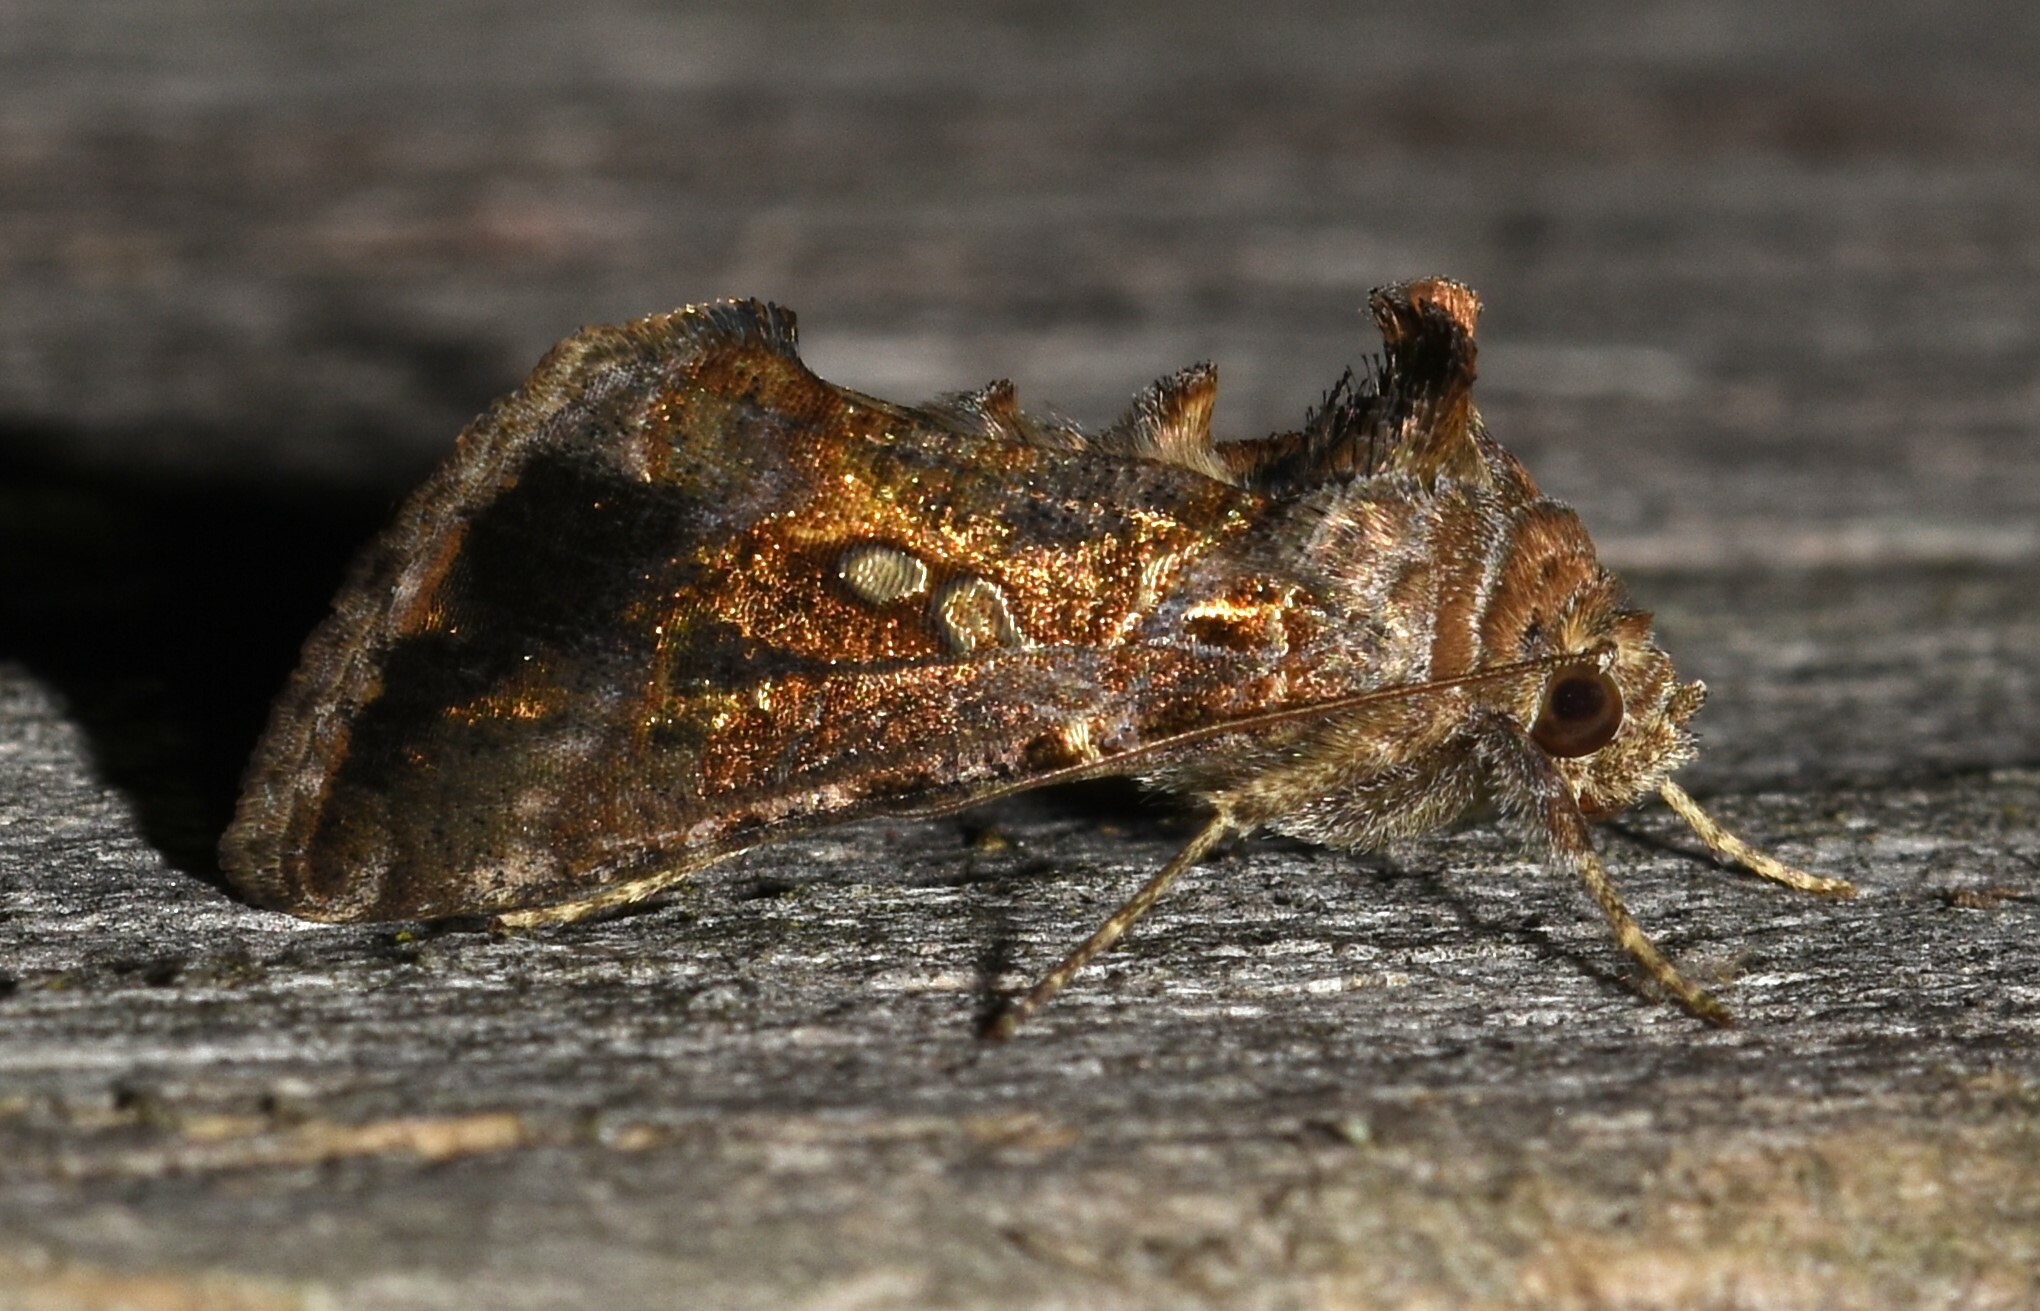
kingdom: Animalia
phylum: Arthropoda
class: Insecta
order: Lepidoptera
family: Noctuidae
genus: Chrysodeixis
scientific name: Chrysodeixis includens
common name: Cutworm moth
